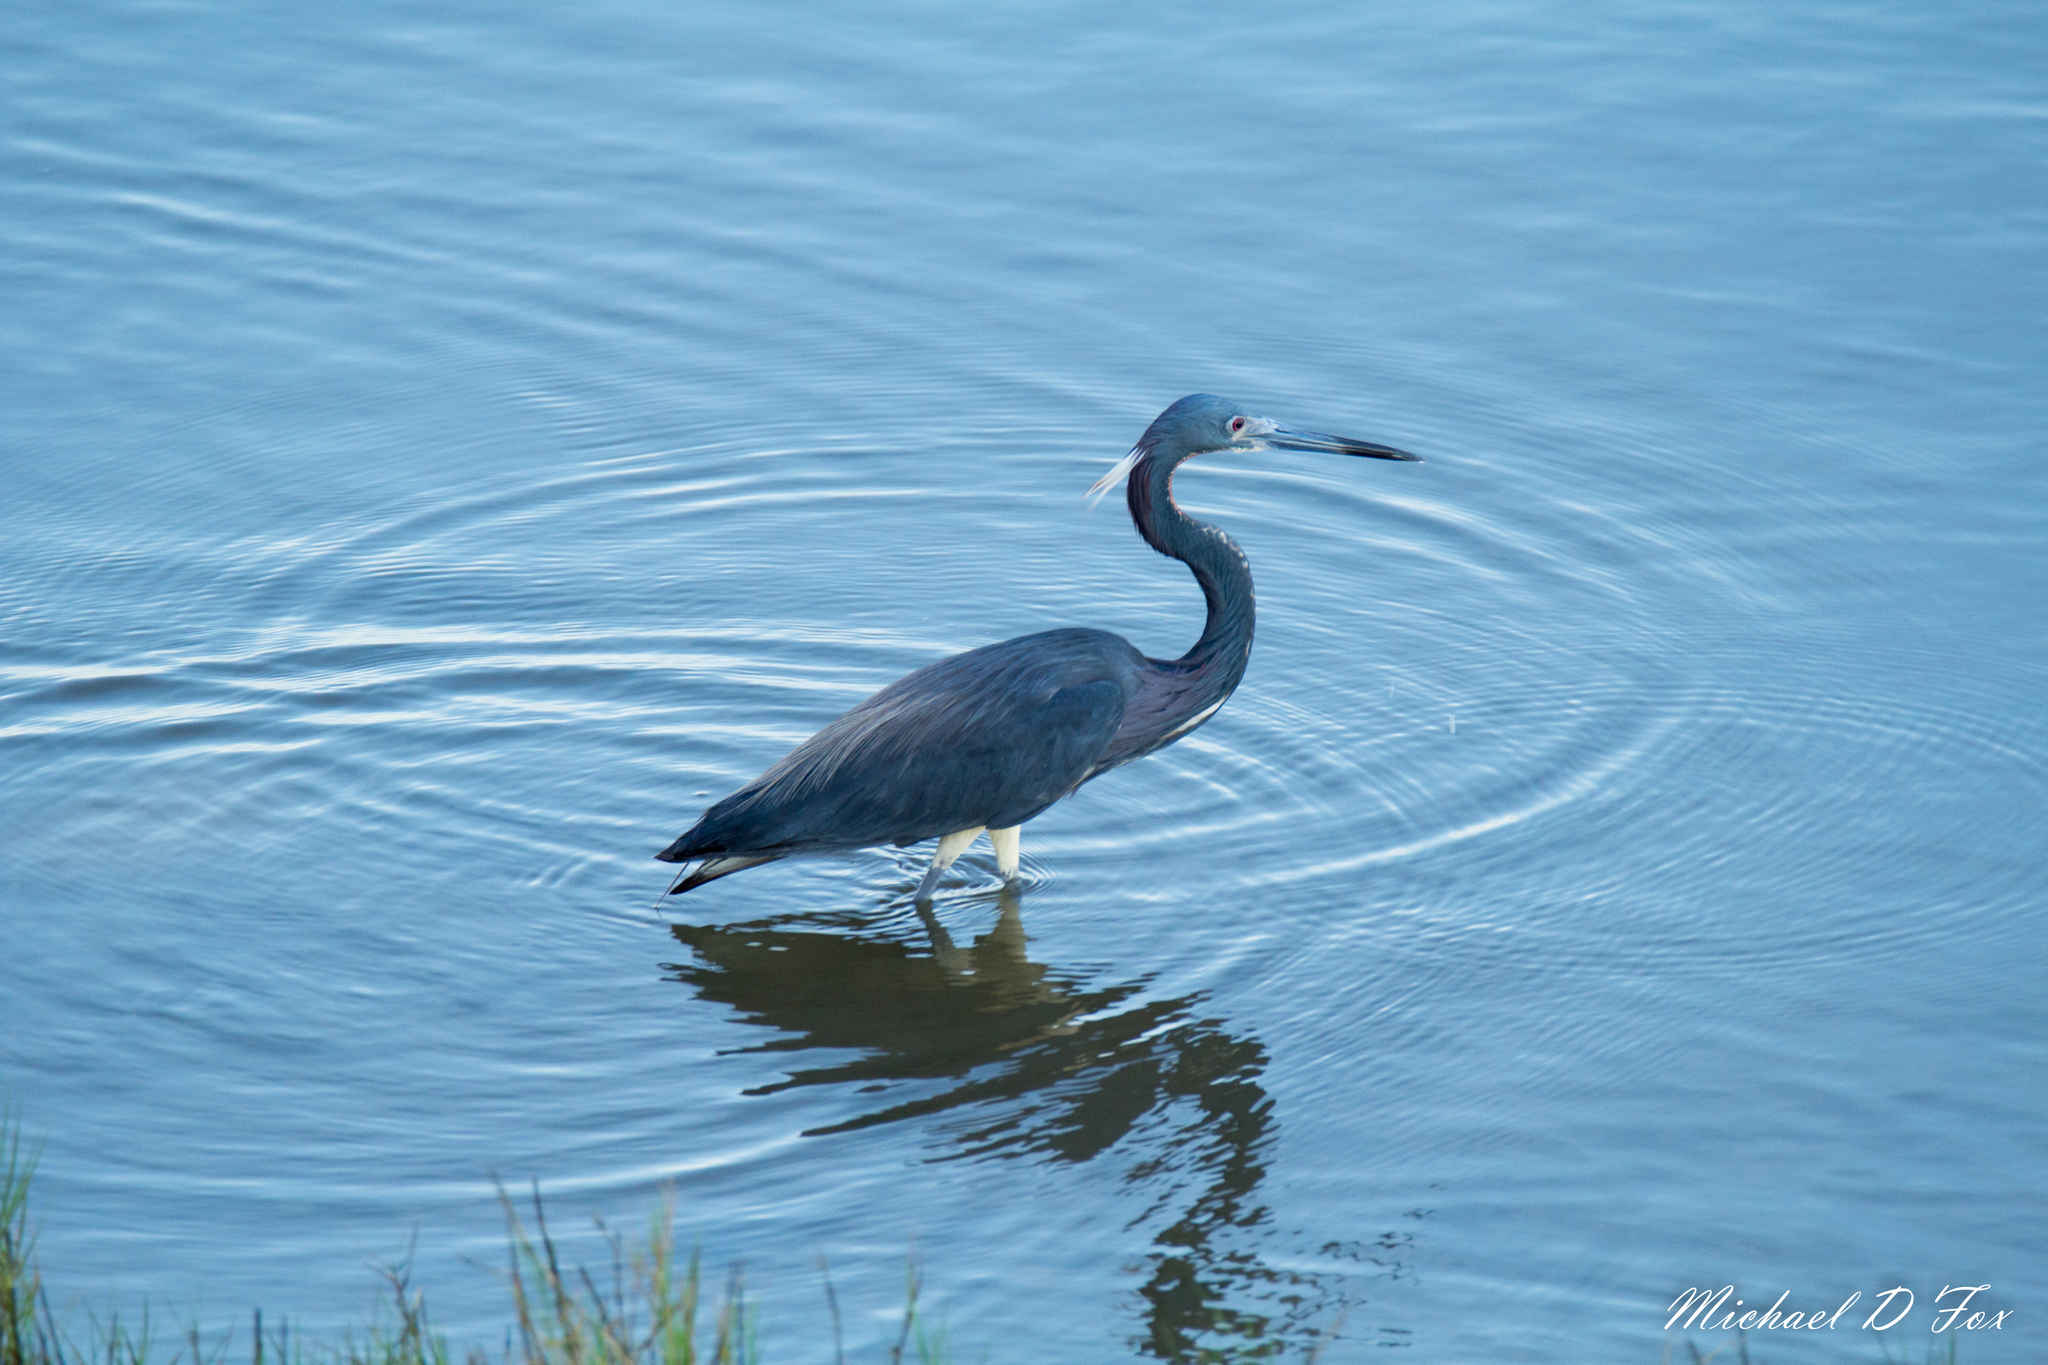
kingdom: Animalia
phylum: Chordata
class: Aves
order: Pelecaniformes
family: Ardeidae
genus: Egretta
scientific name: Egretta tricolor
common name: Tricolored heron
